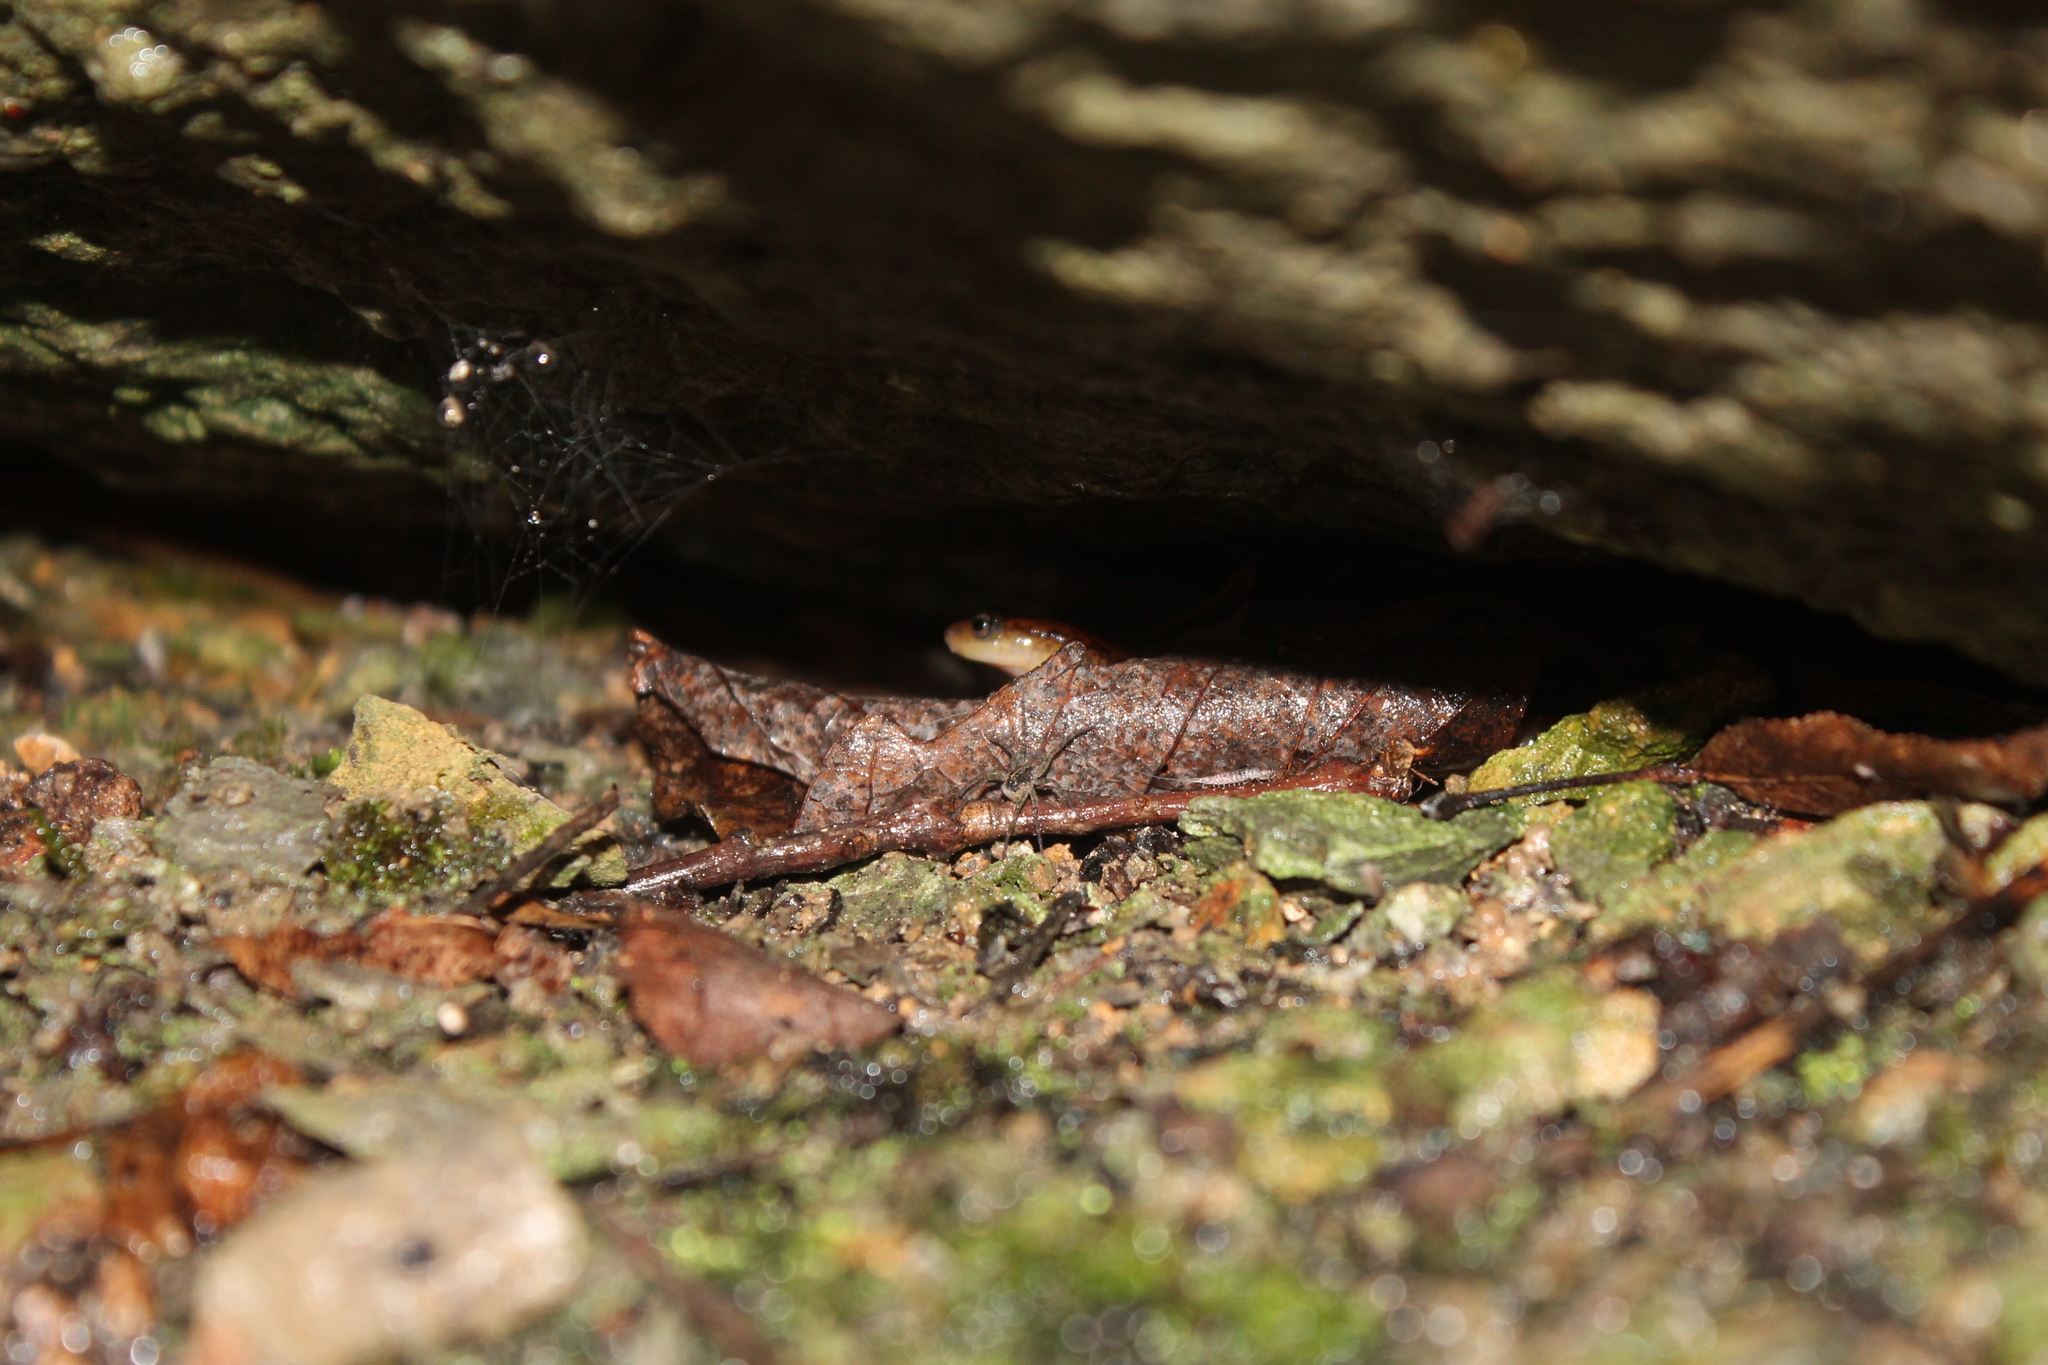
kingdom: Animalia
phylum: Chordata
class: Amphibia
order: Caudata
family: Plethodontidae
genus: Eurycea
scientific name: Eurycea longicauda
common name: Long-tailed salamander
